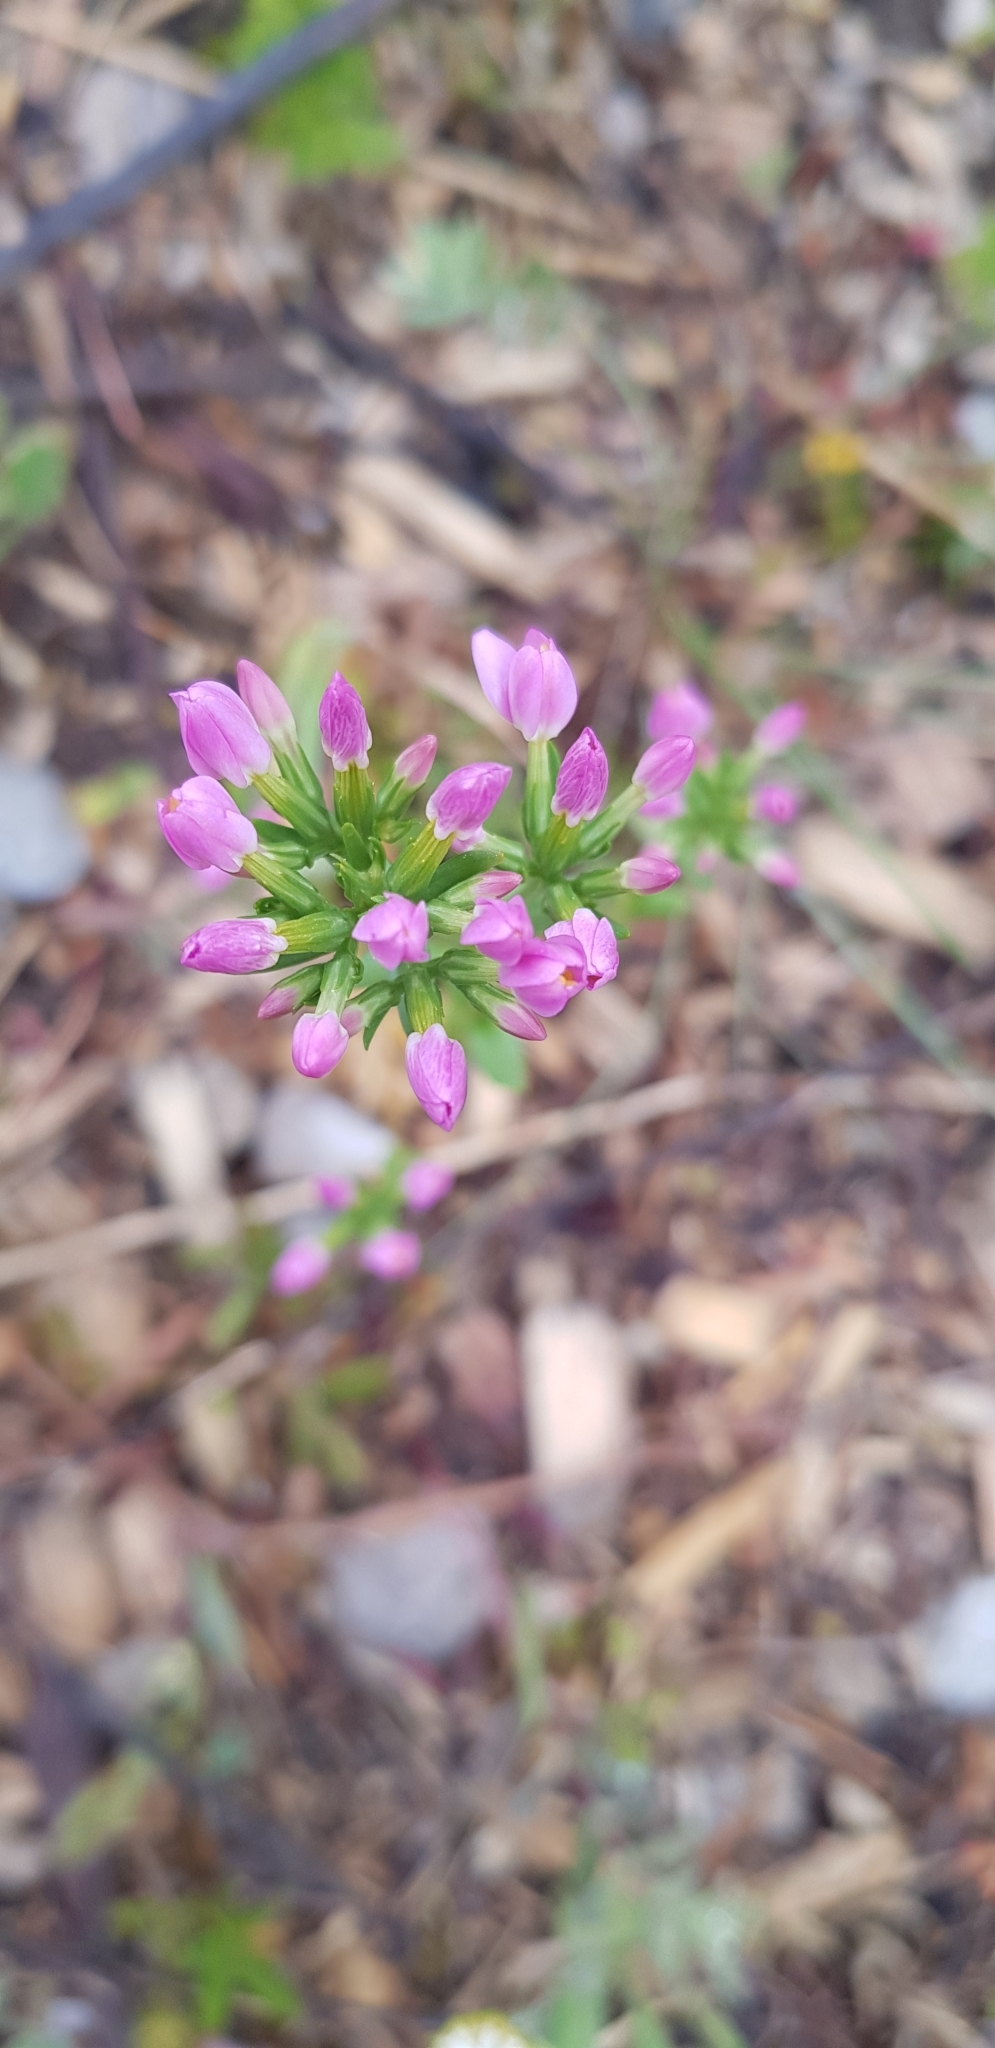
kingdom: Plantae
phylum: Tracheophyta
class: Magnoliopsida
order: Gentianales
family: Gentianaceae
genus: Centaurium
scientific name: Centaurium erythraea
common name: Common centaury
